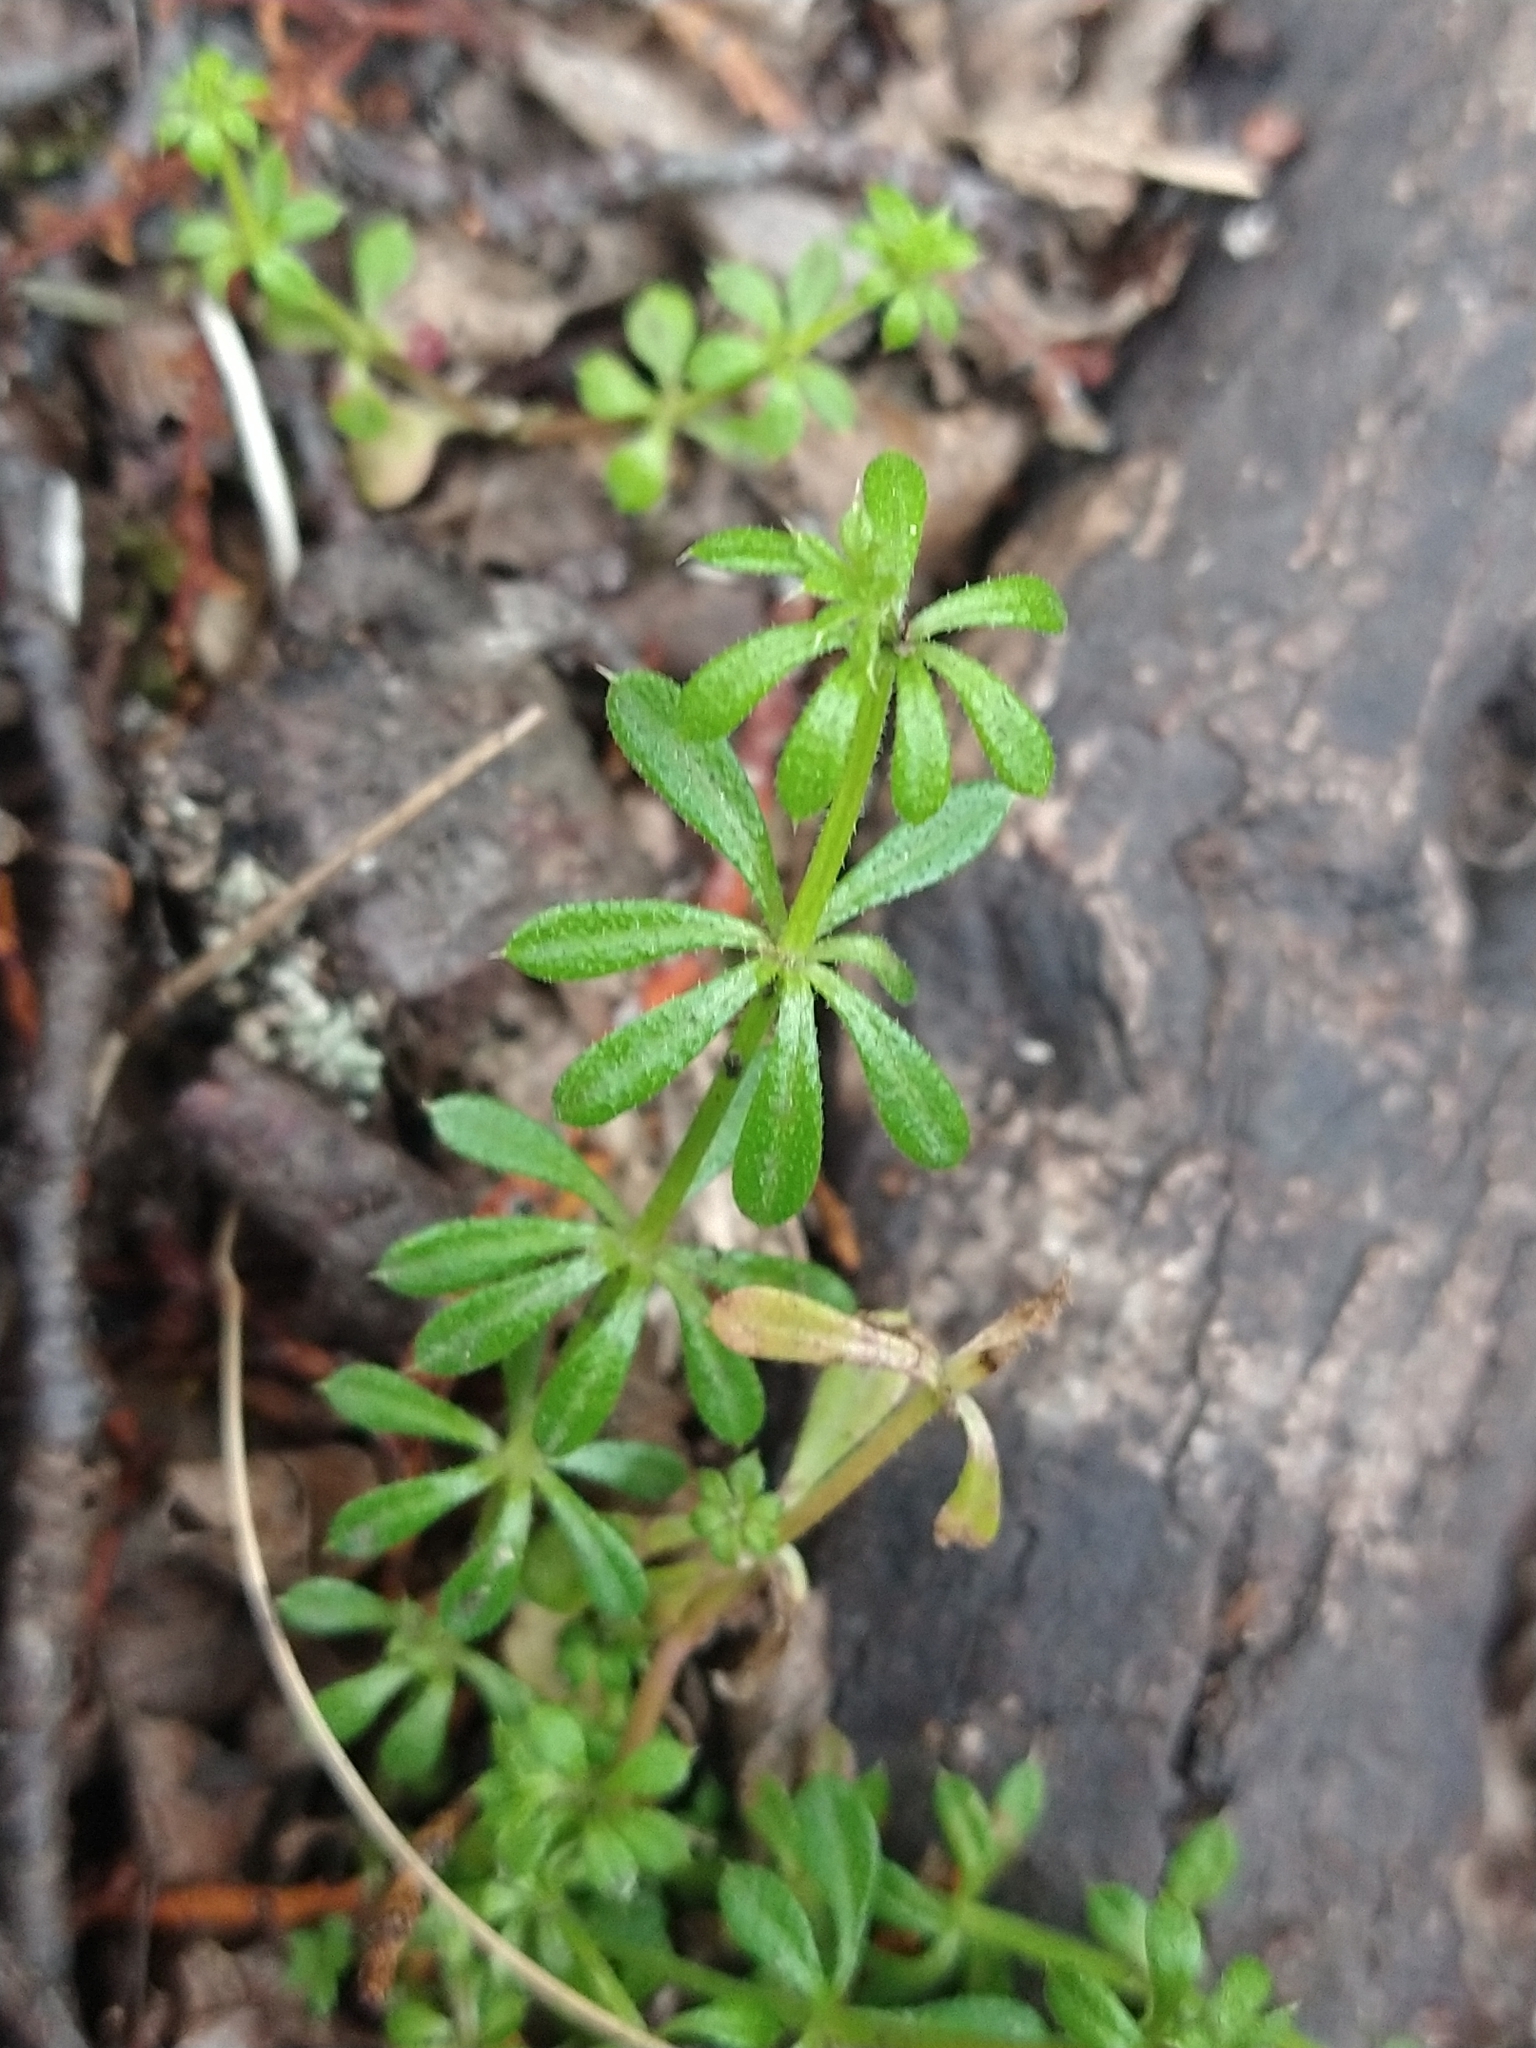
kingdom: Plantae
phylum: Tracheophyta
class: Magnoliopsida
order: Gentianales
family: Rubiaceae
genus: Galium
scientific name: Galium aparine
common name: Cleavers
